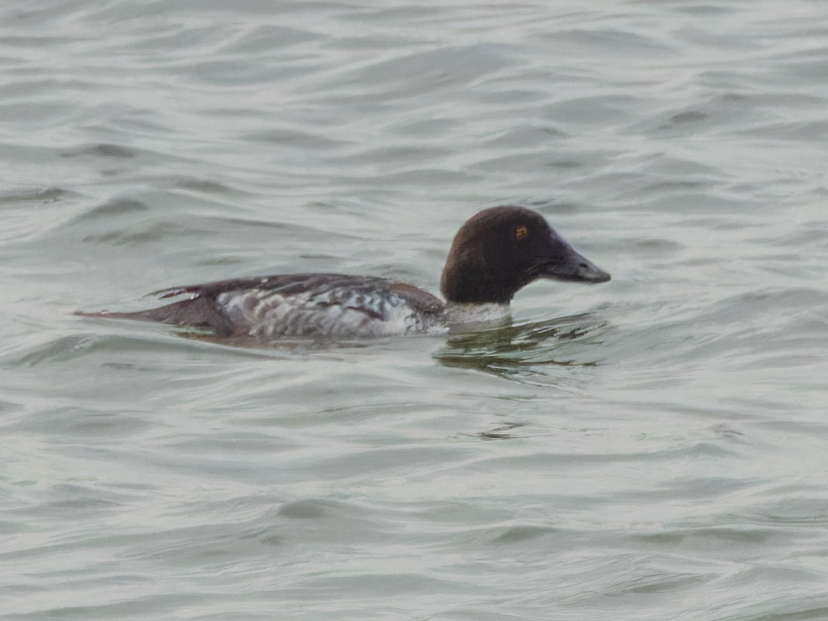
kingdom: Animalia
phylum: Chordata
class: Aves
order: Anseriformes
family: Anatidae
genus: Bucephala
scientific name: Bucephala clangula
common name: Common goldeneye
